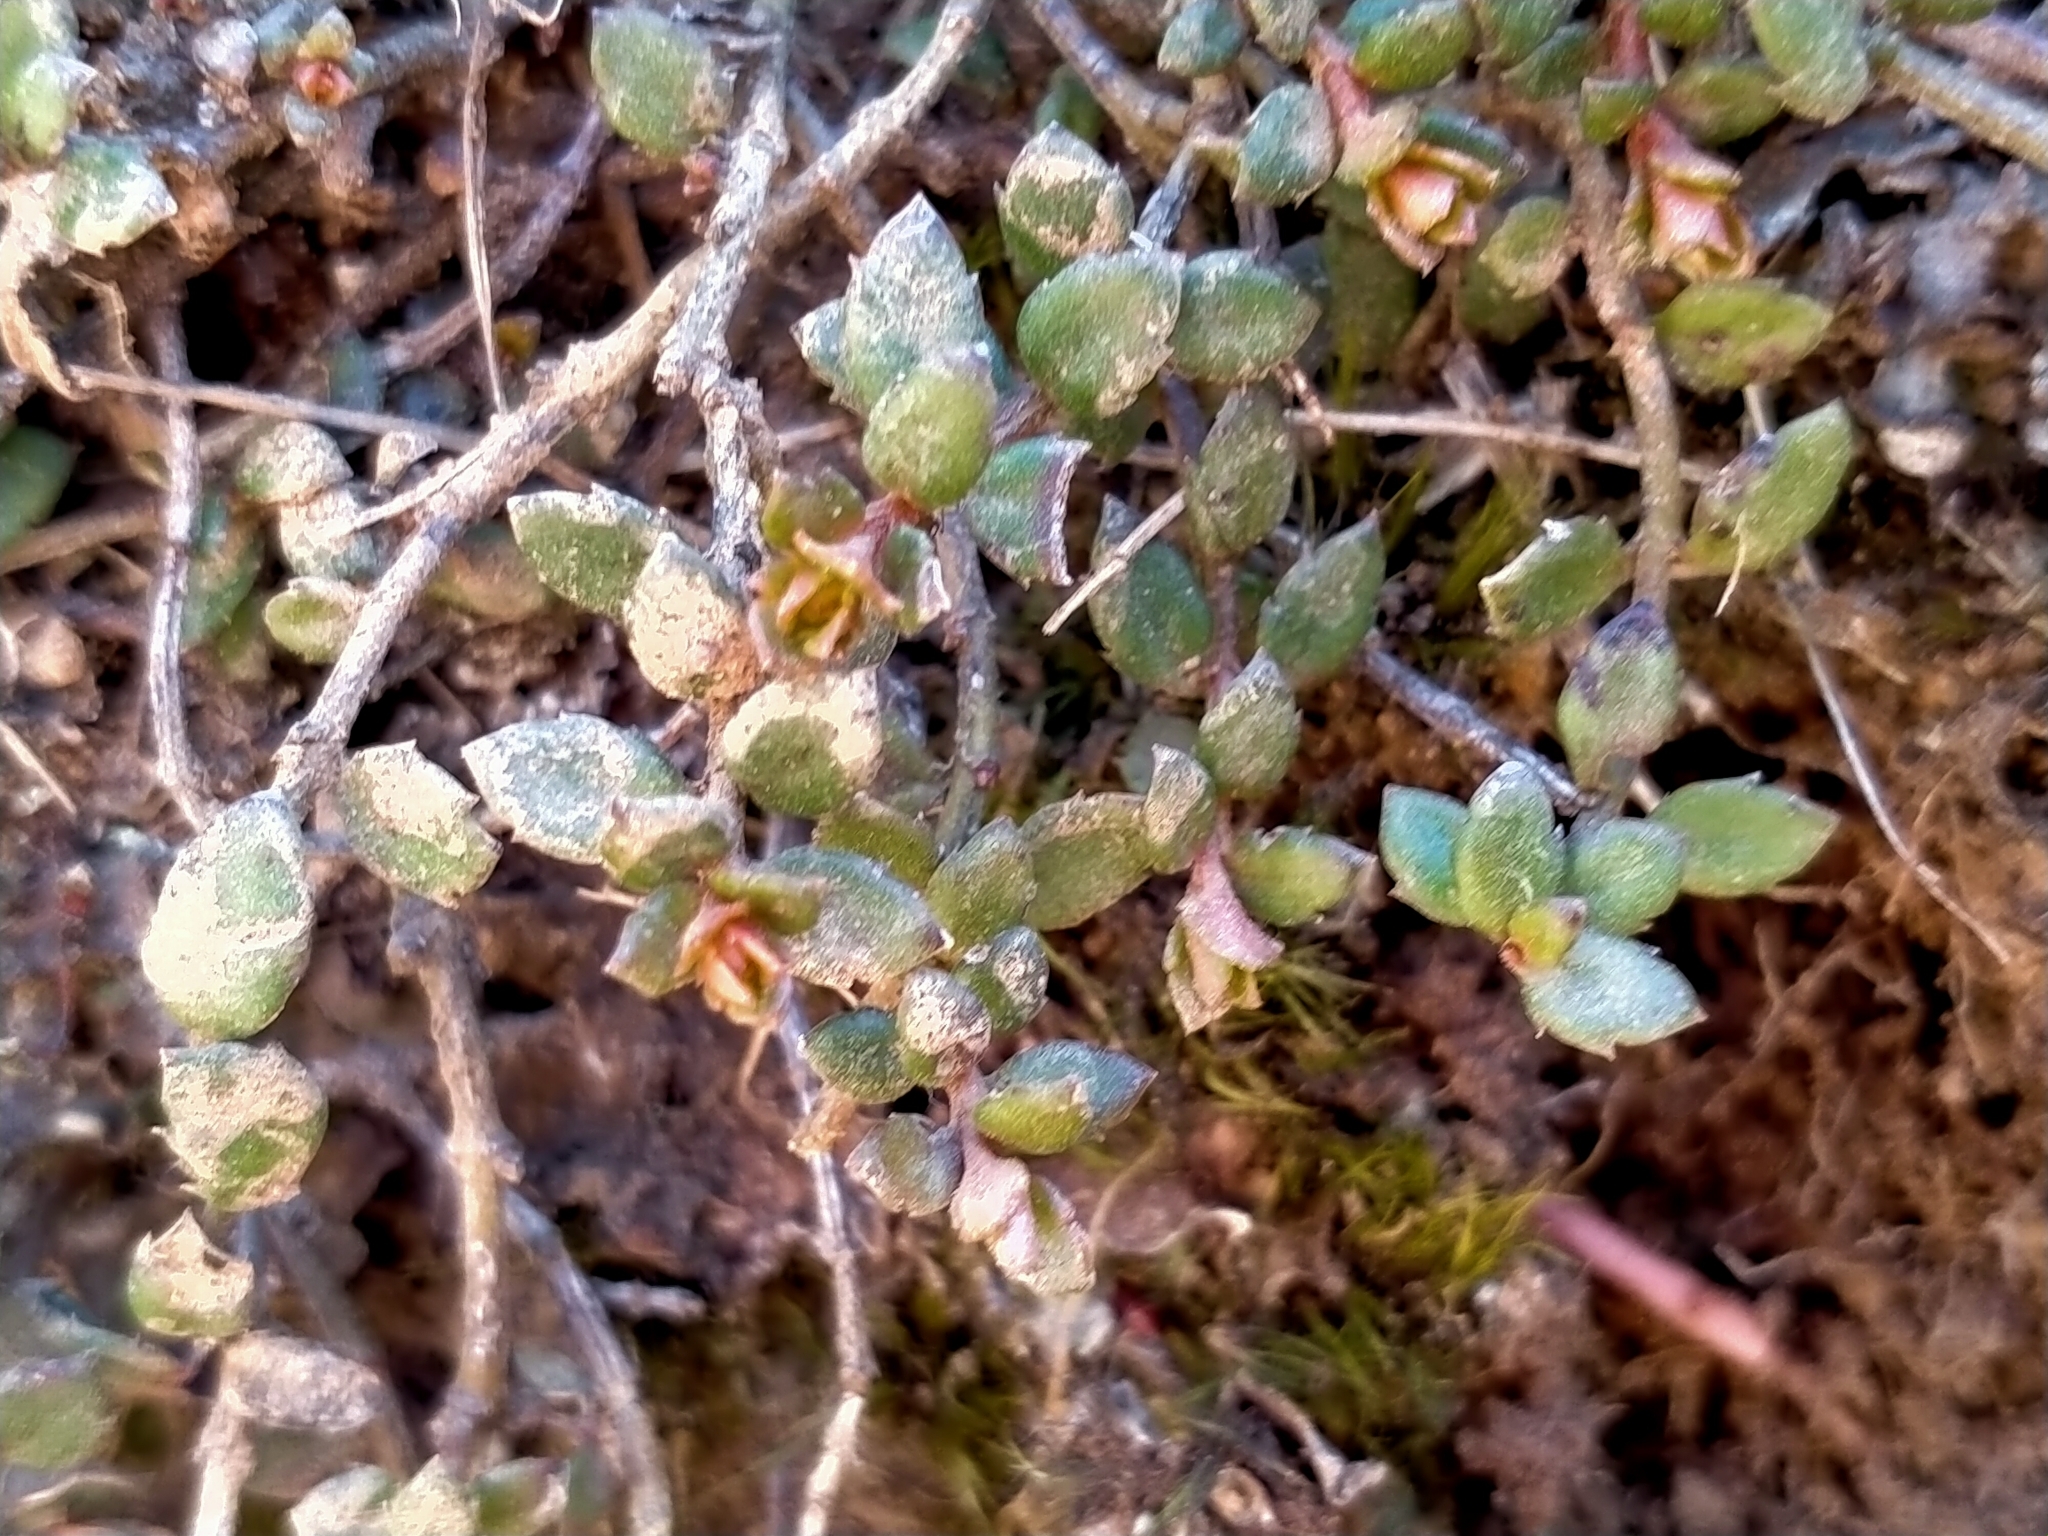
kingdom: Plantae
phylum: Tracheophyta
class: Magnoliopsida
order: Saxifragales
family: Haloragaceae
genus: Gonocarpus
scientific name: Gonocarpus incanus
